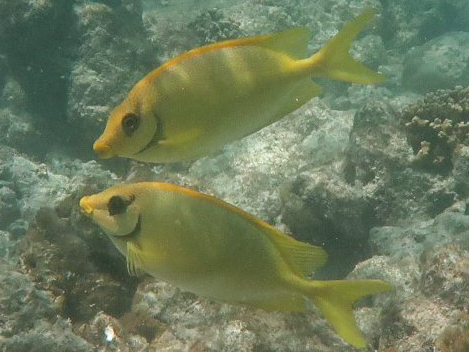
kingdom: Animalia
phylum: Chordata
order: Perciformes
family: Siganidae
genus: Siganus
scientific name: Siganus corallinus
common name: Coral rabbitfish
